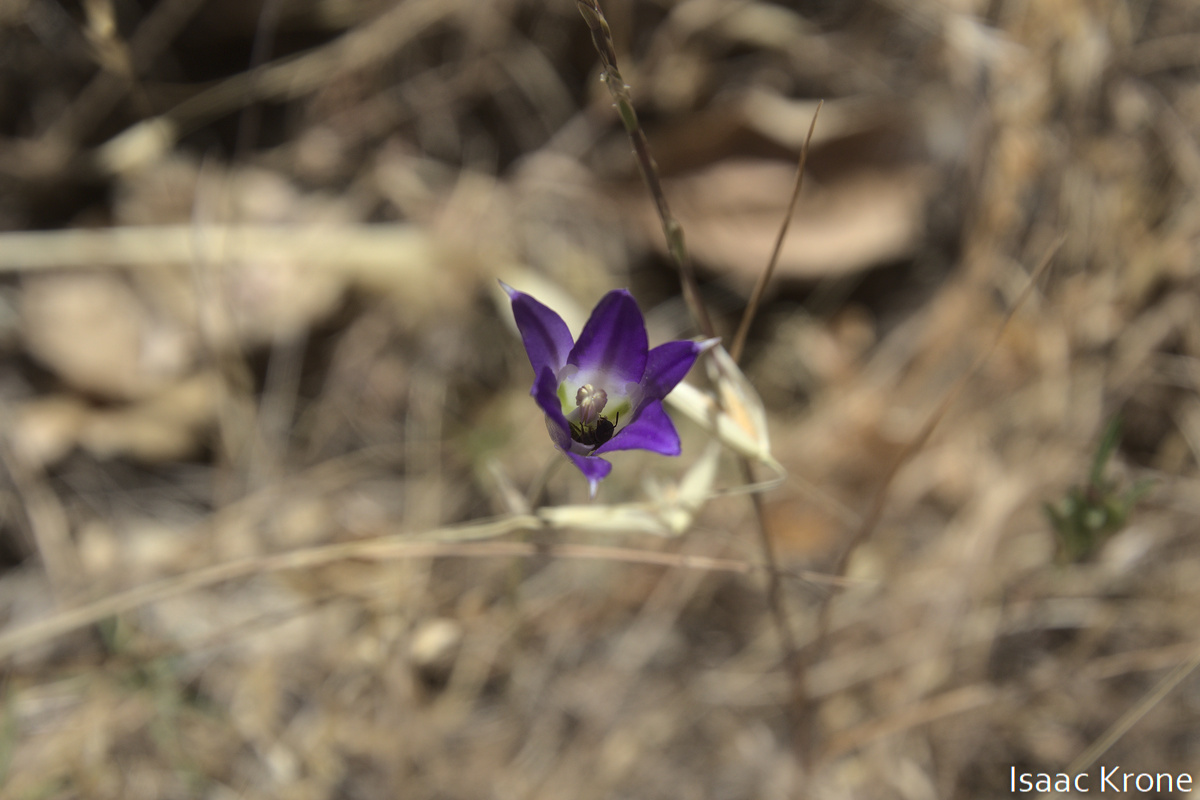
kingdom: Plantae
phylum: Tracheophyta
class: Liliopsida
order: Asparagales
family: Asparagaceae
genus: Brodiaea
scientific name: Brodiaea elegans
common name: Elegant cluster-lily
